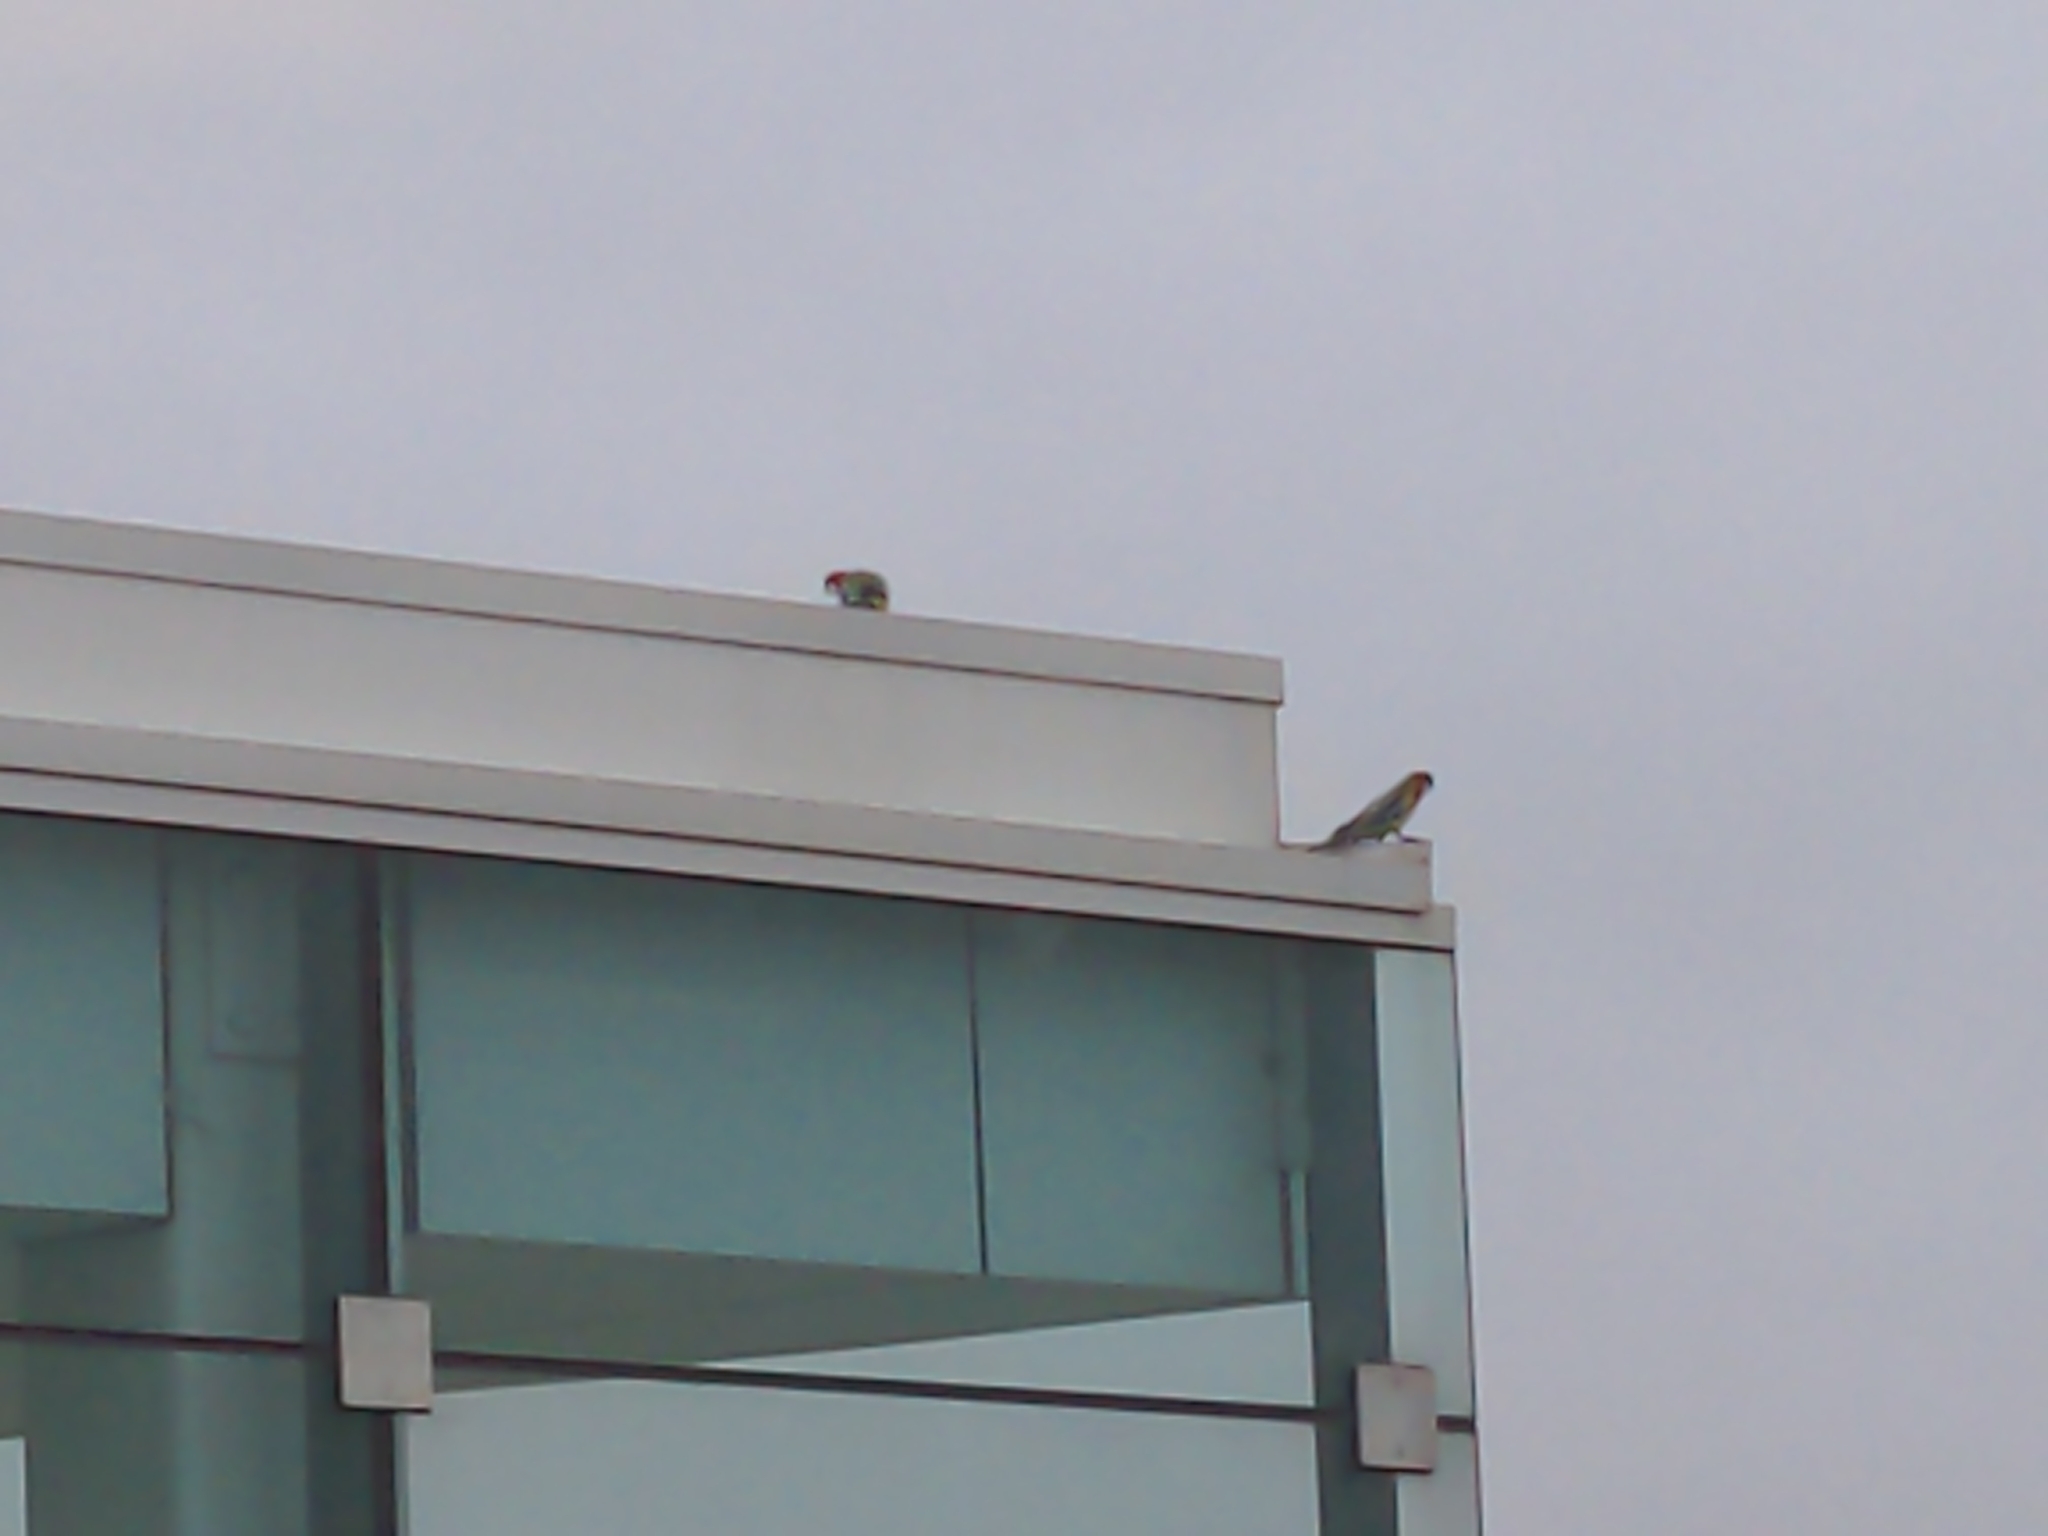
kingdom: Animalia
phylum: Chordata
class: Aves
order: Psittaciformes
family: Psittacidae
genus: Platycercus
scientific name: Platycercus eximius
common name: Eastern rosella
